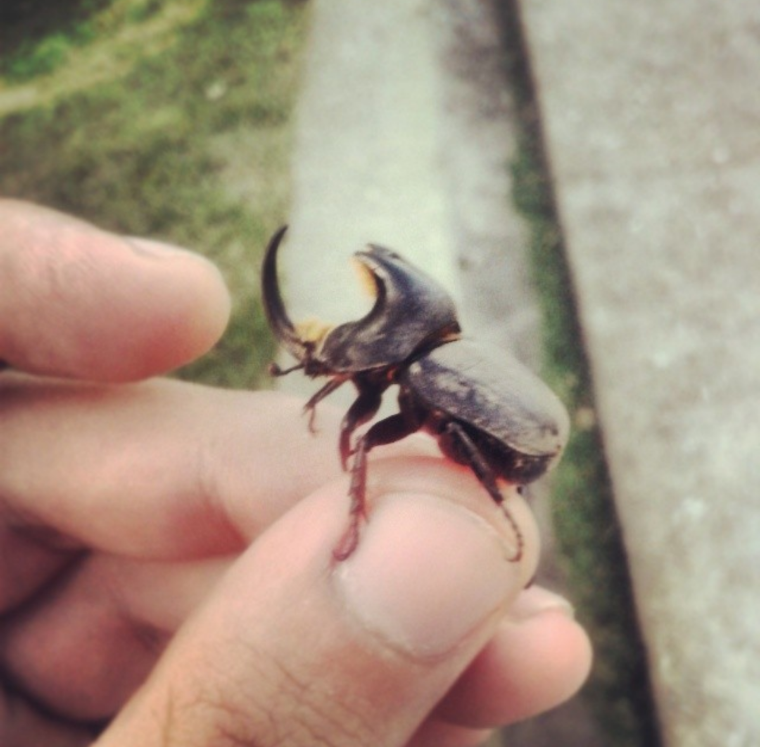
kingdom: Animalia
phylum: Arthropoda
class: Insecta
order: Coleoptera
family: Scarabaeidae
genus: Diloboderus
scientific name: Diloboderus abderus
